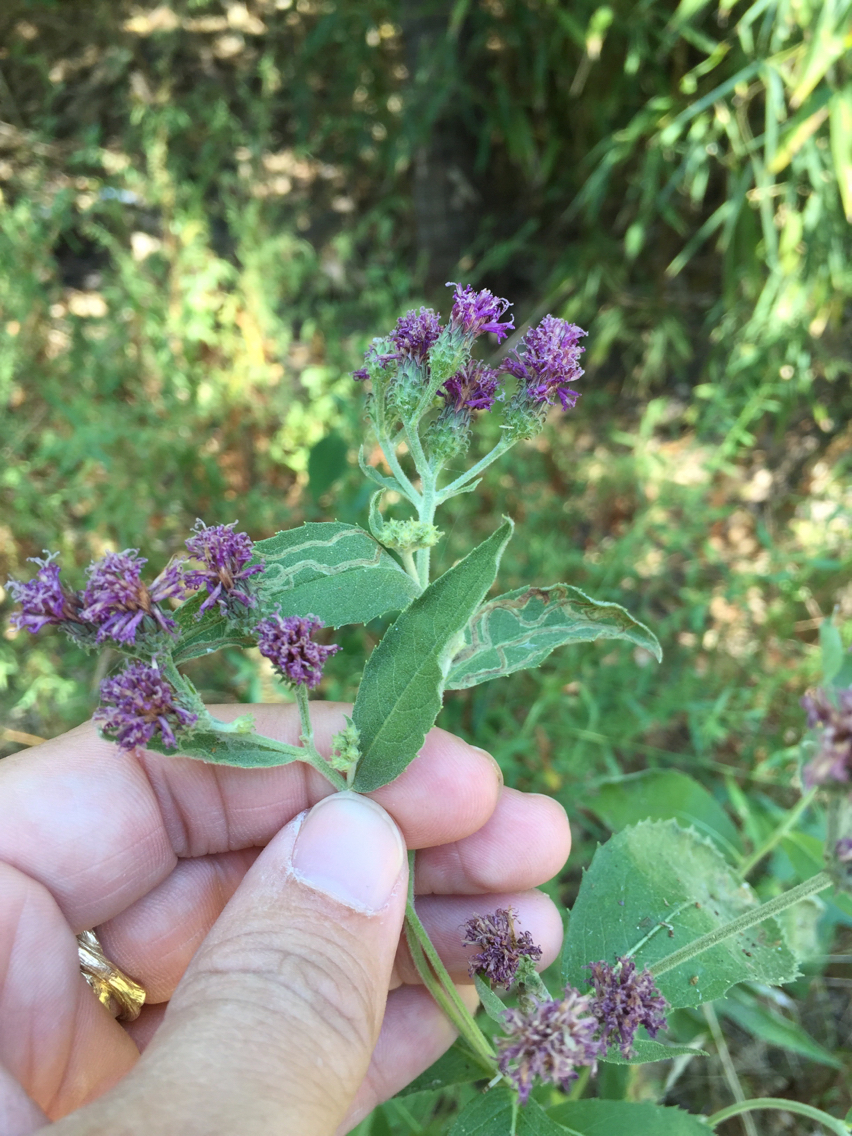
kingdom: Plantae
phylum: Tracheophyta
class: Magnoliopsida
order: Asterales
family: Asteraceae
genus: Vernonia
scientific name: Vernonia baldwinii
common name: Western ironweed
